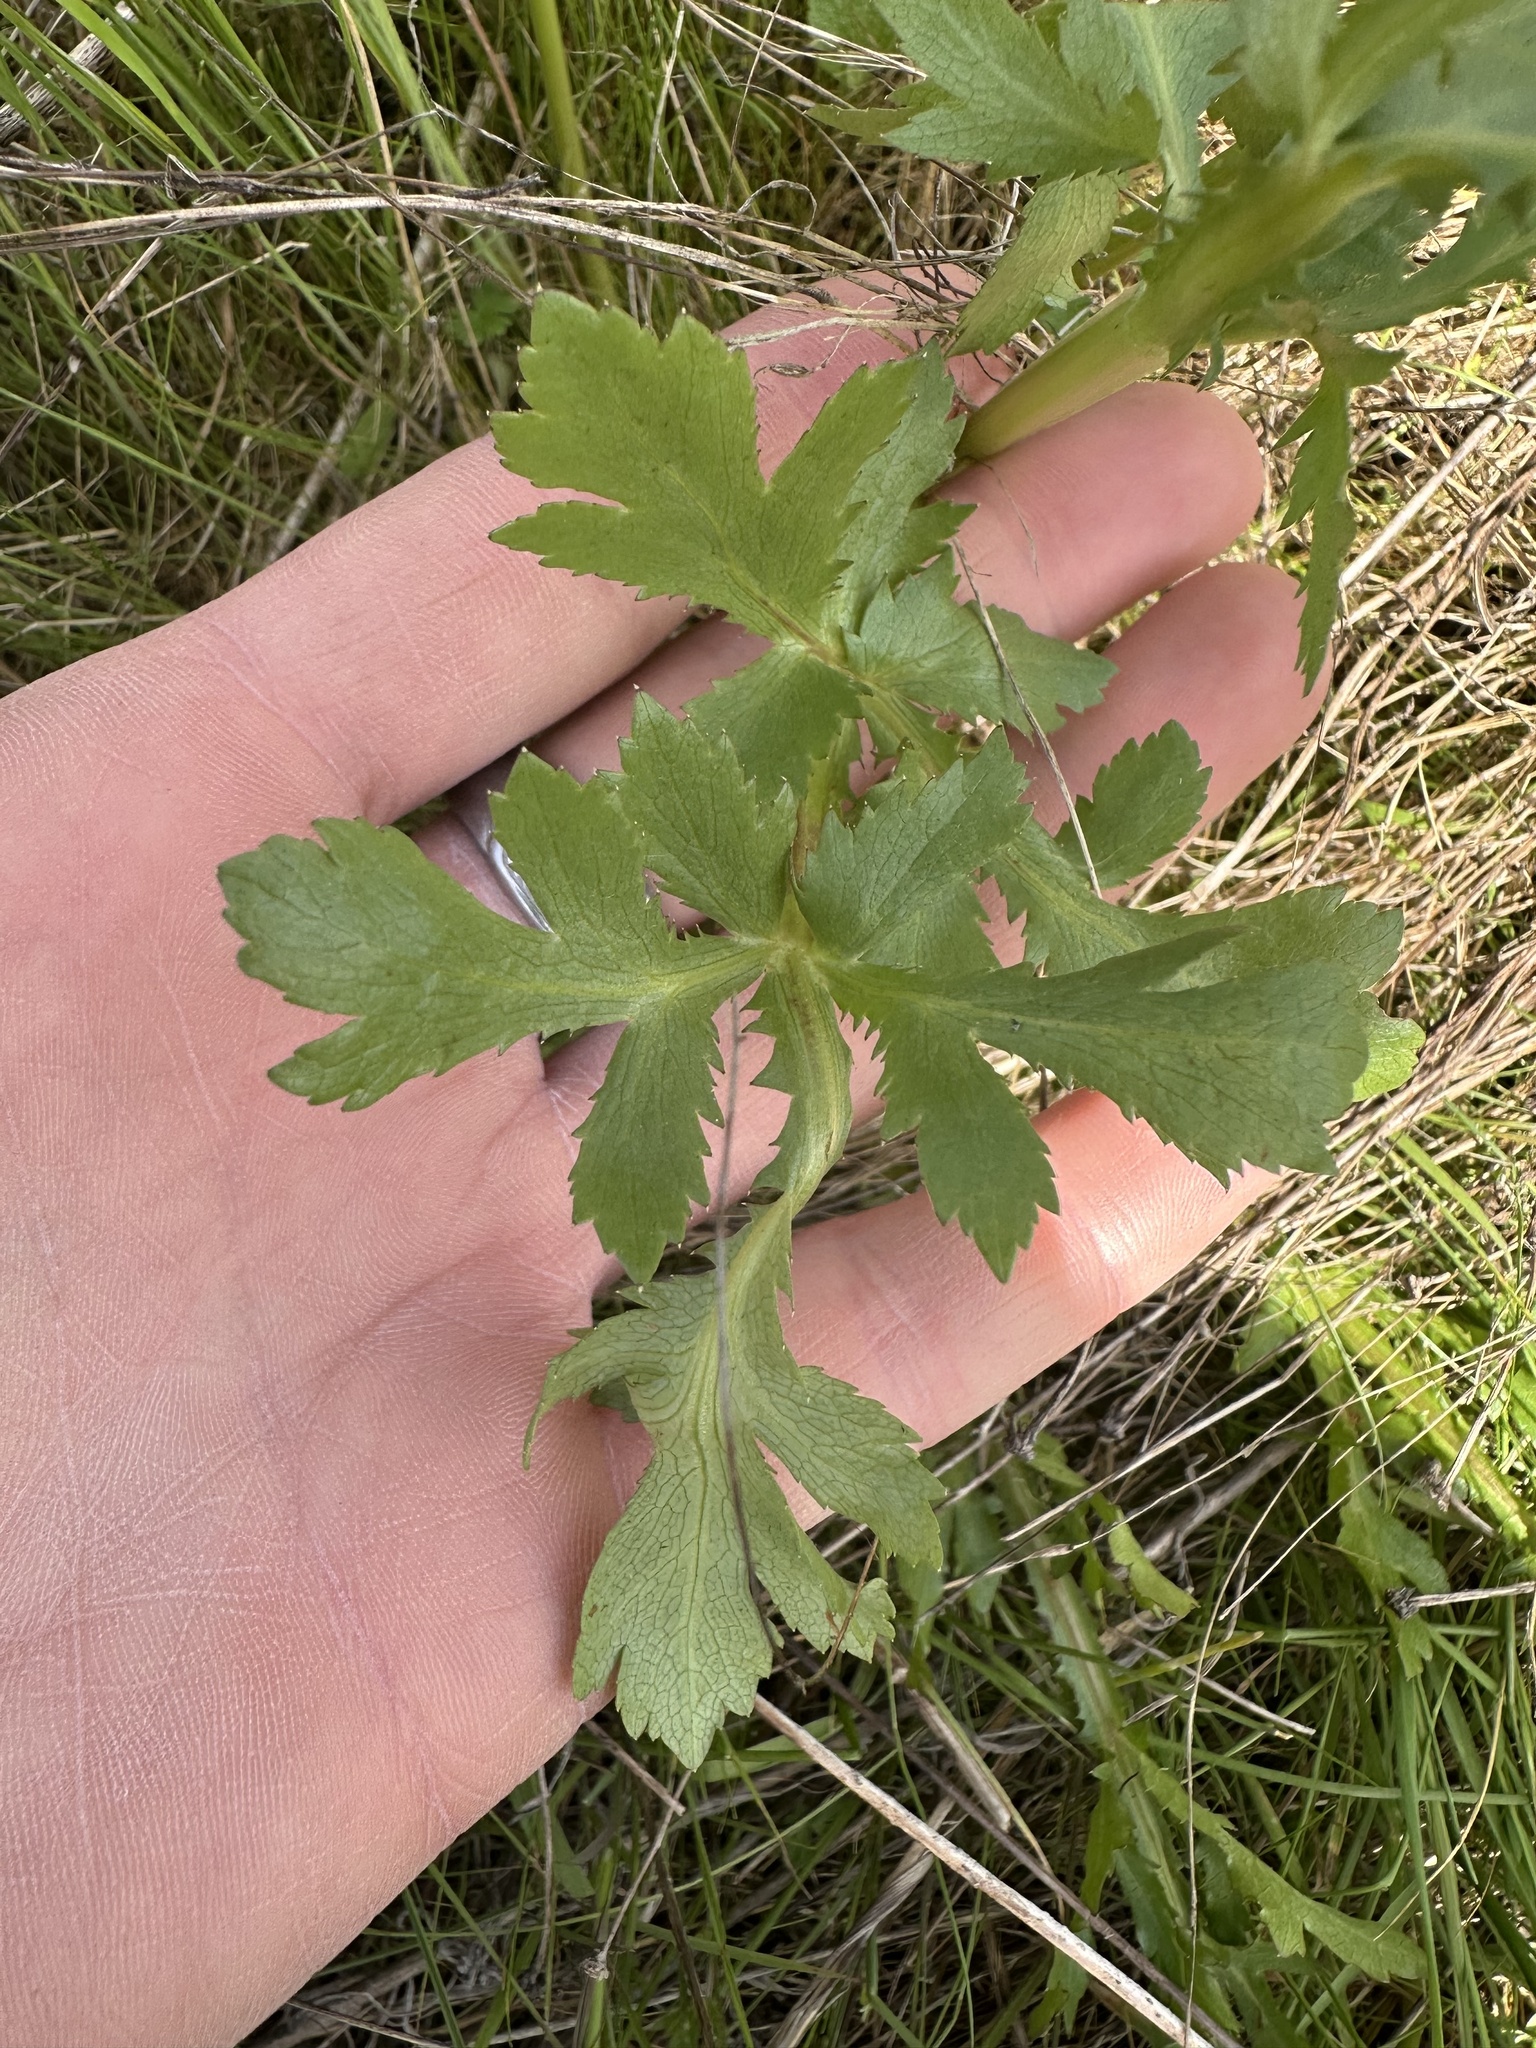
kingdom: Plantae
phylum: Tracheophyta
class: Magnoliopsida
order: Apiales
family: Apiaceae
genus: Sanicula
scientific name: Sanicula bipinnatifida
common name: Shoe-buttons
